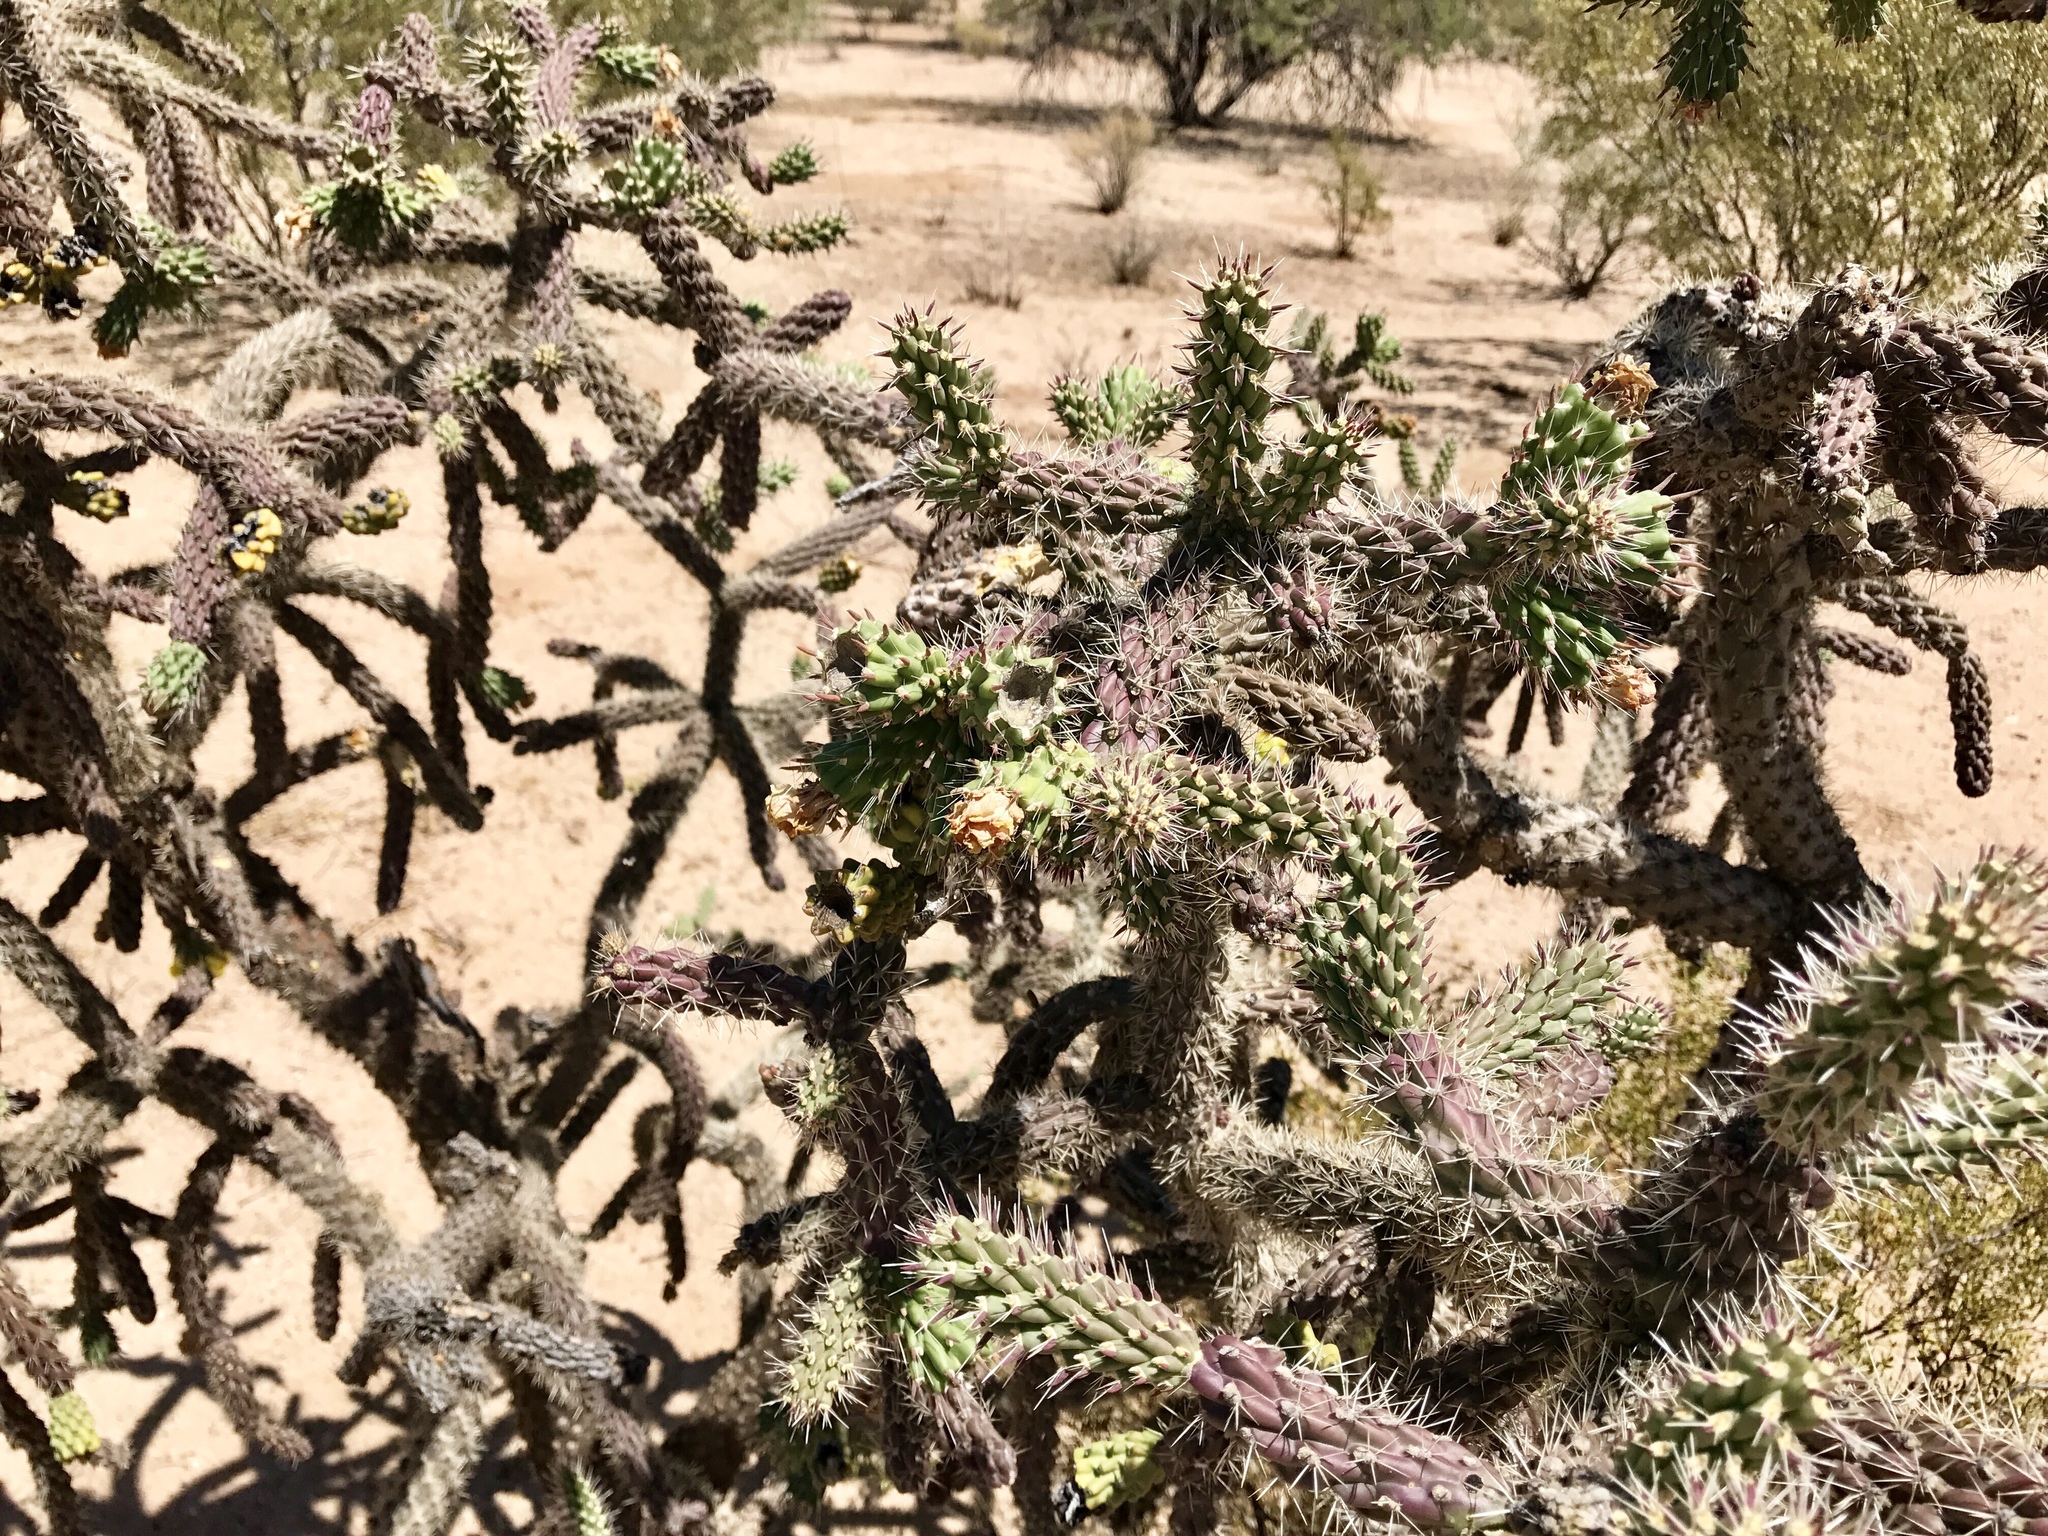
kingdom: Plantae
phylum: Tracheophyta
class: Magnoliopsida
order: Caryophyllales
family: Cactaceae
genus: Cylindropuntia
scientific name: Cylindropuntia imbricata
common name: Candelabrum cactus
